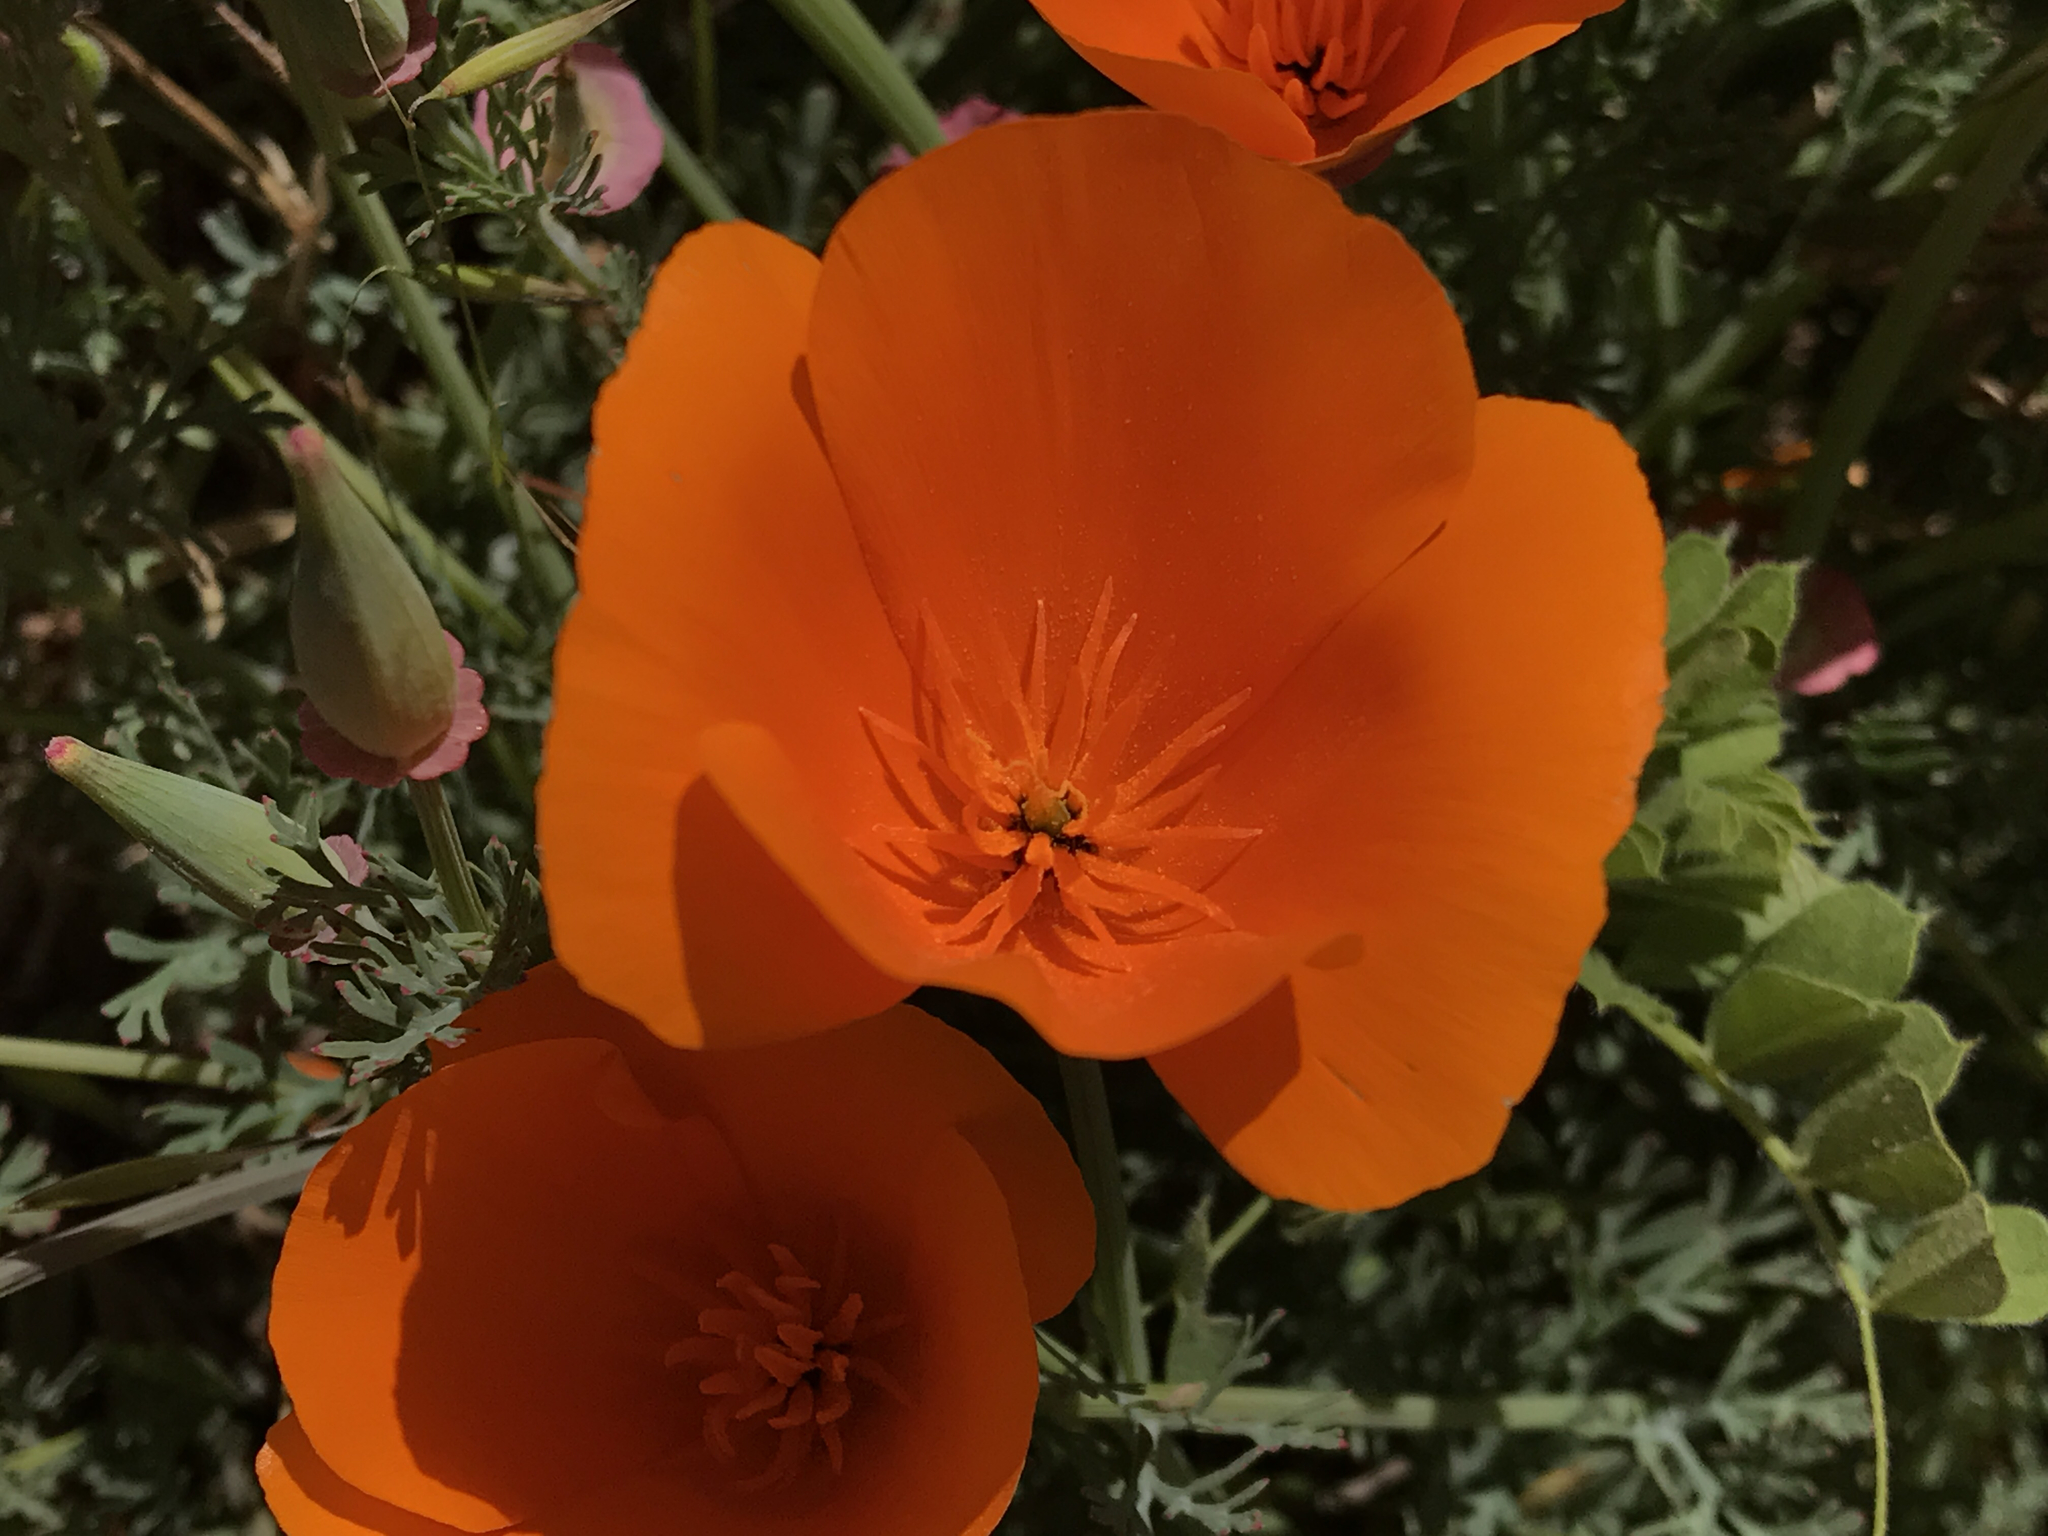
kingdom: Plantae
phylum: Tracheophyta
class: Magnoliopsida
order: Ranunculales
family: Papaveraceae
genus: Eschscholzia
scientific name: Eschscholzia californica
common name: California poppy
